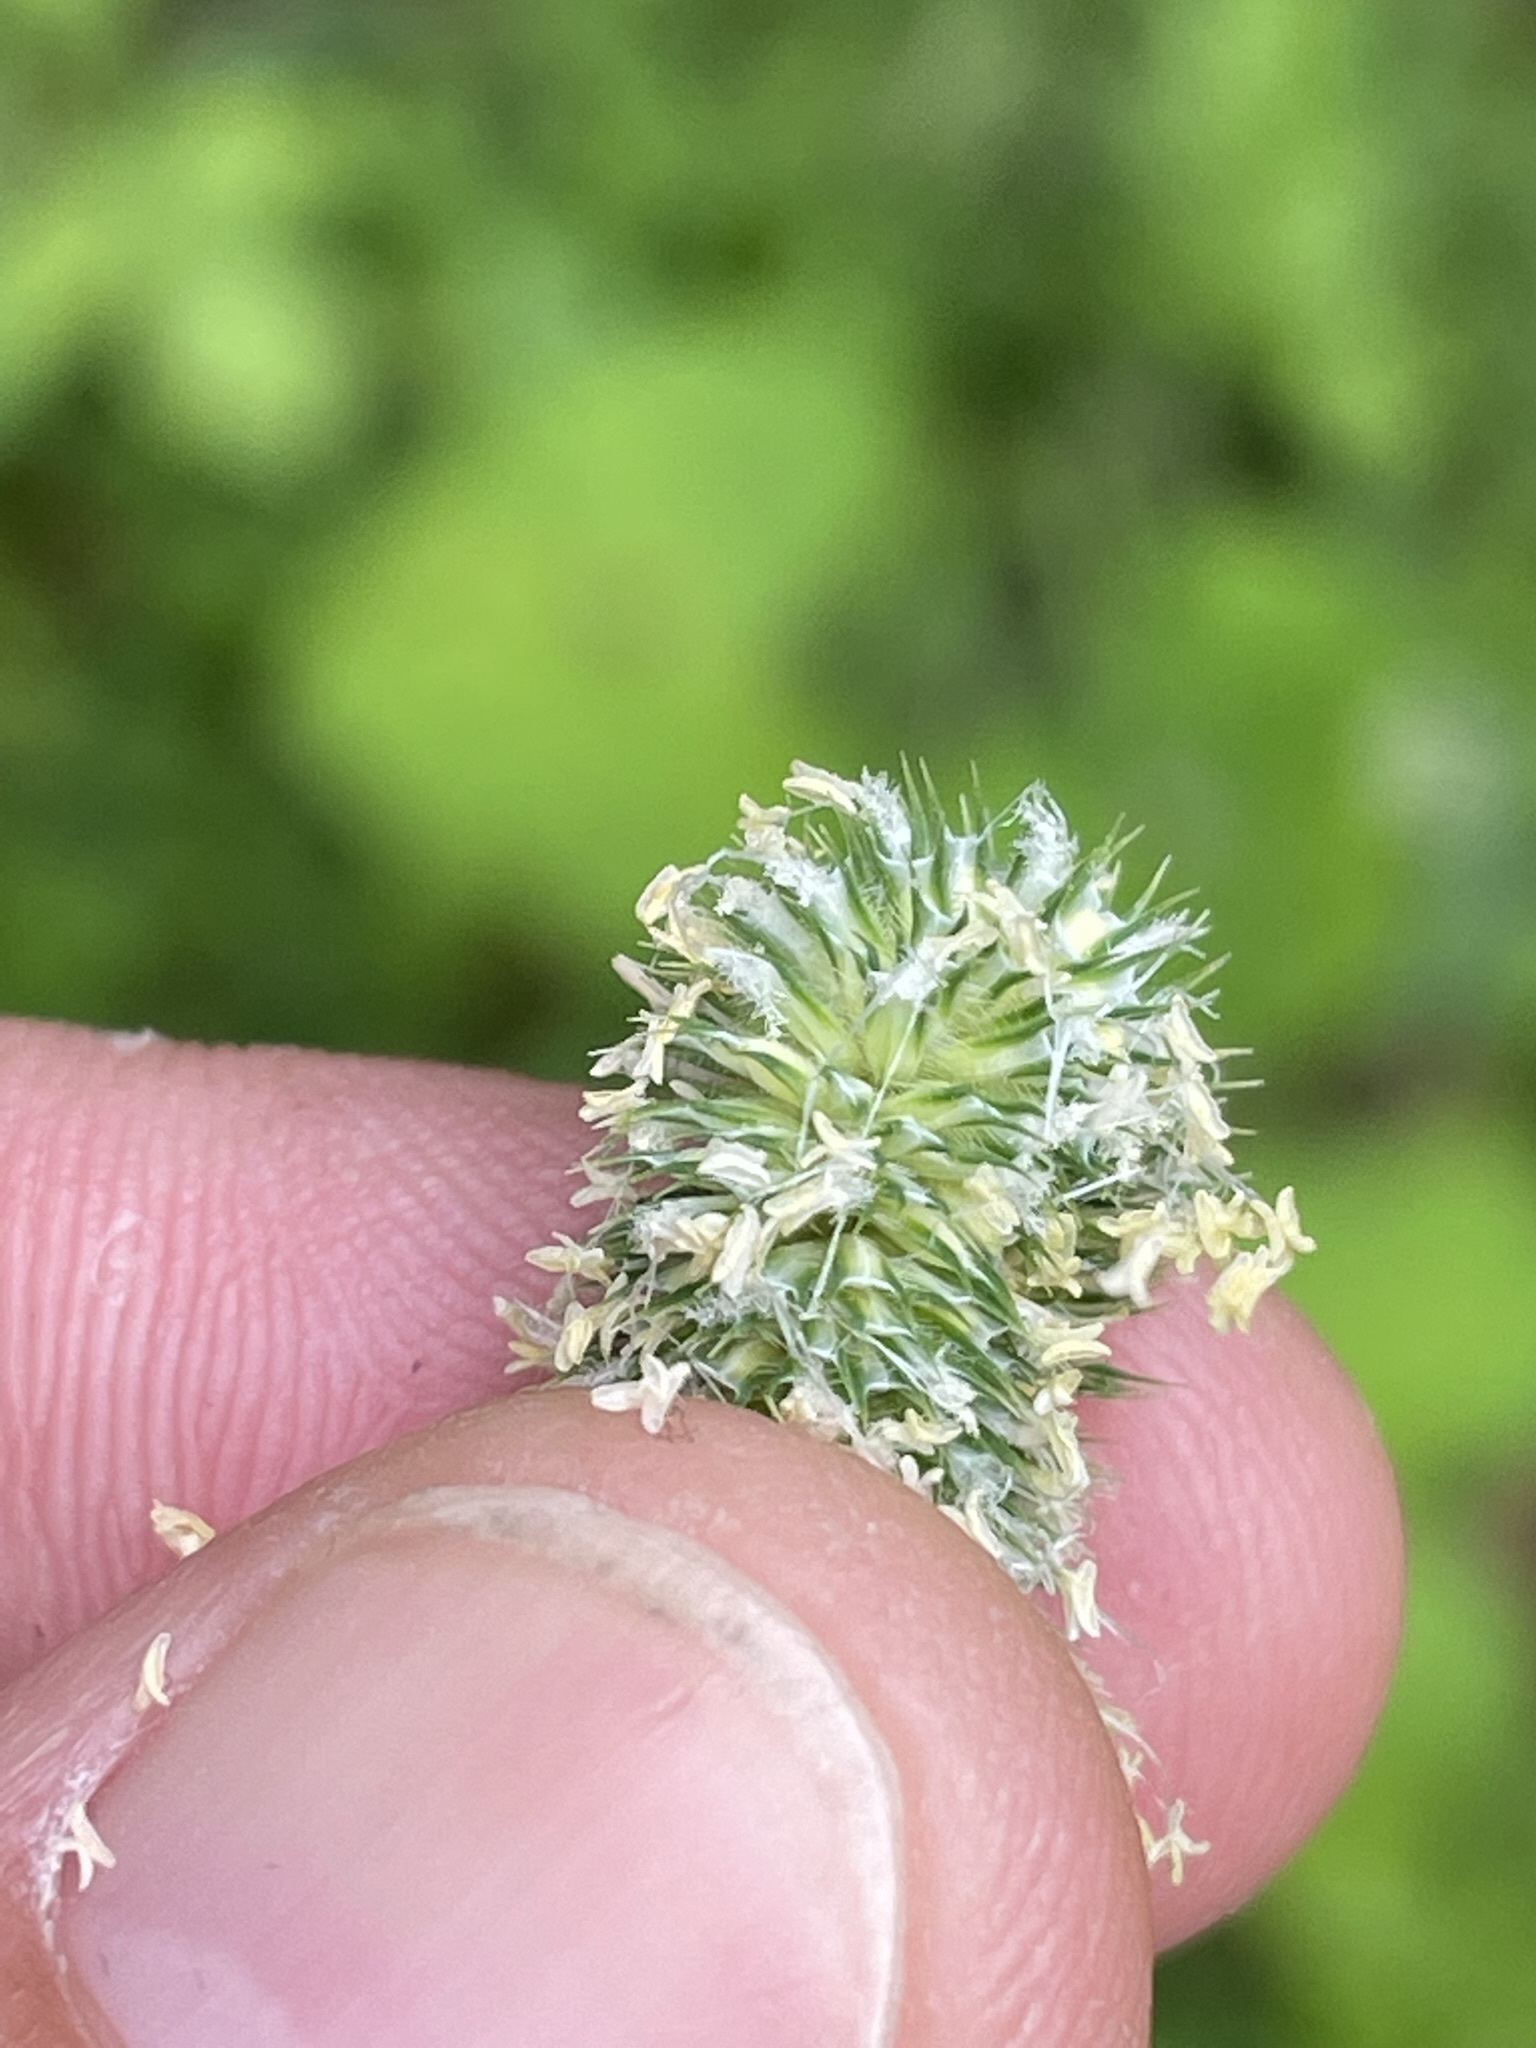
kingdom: Plantae
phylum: Tracheophyta
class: Liliopsida
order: Poales
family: Poaceae
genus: Phleum
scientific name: Phleum pratense
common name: Timothy grass
